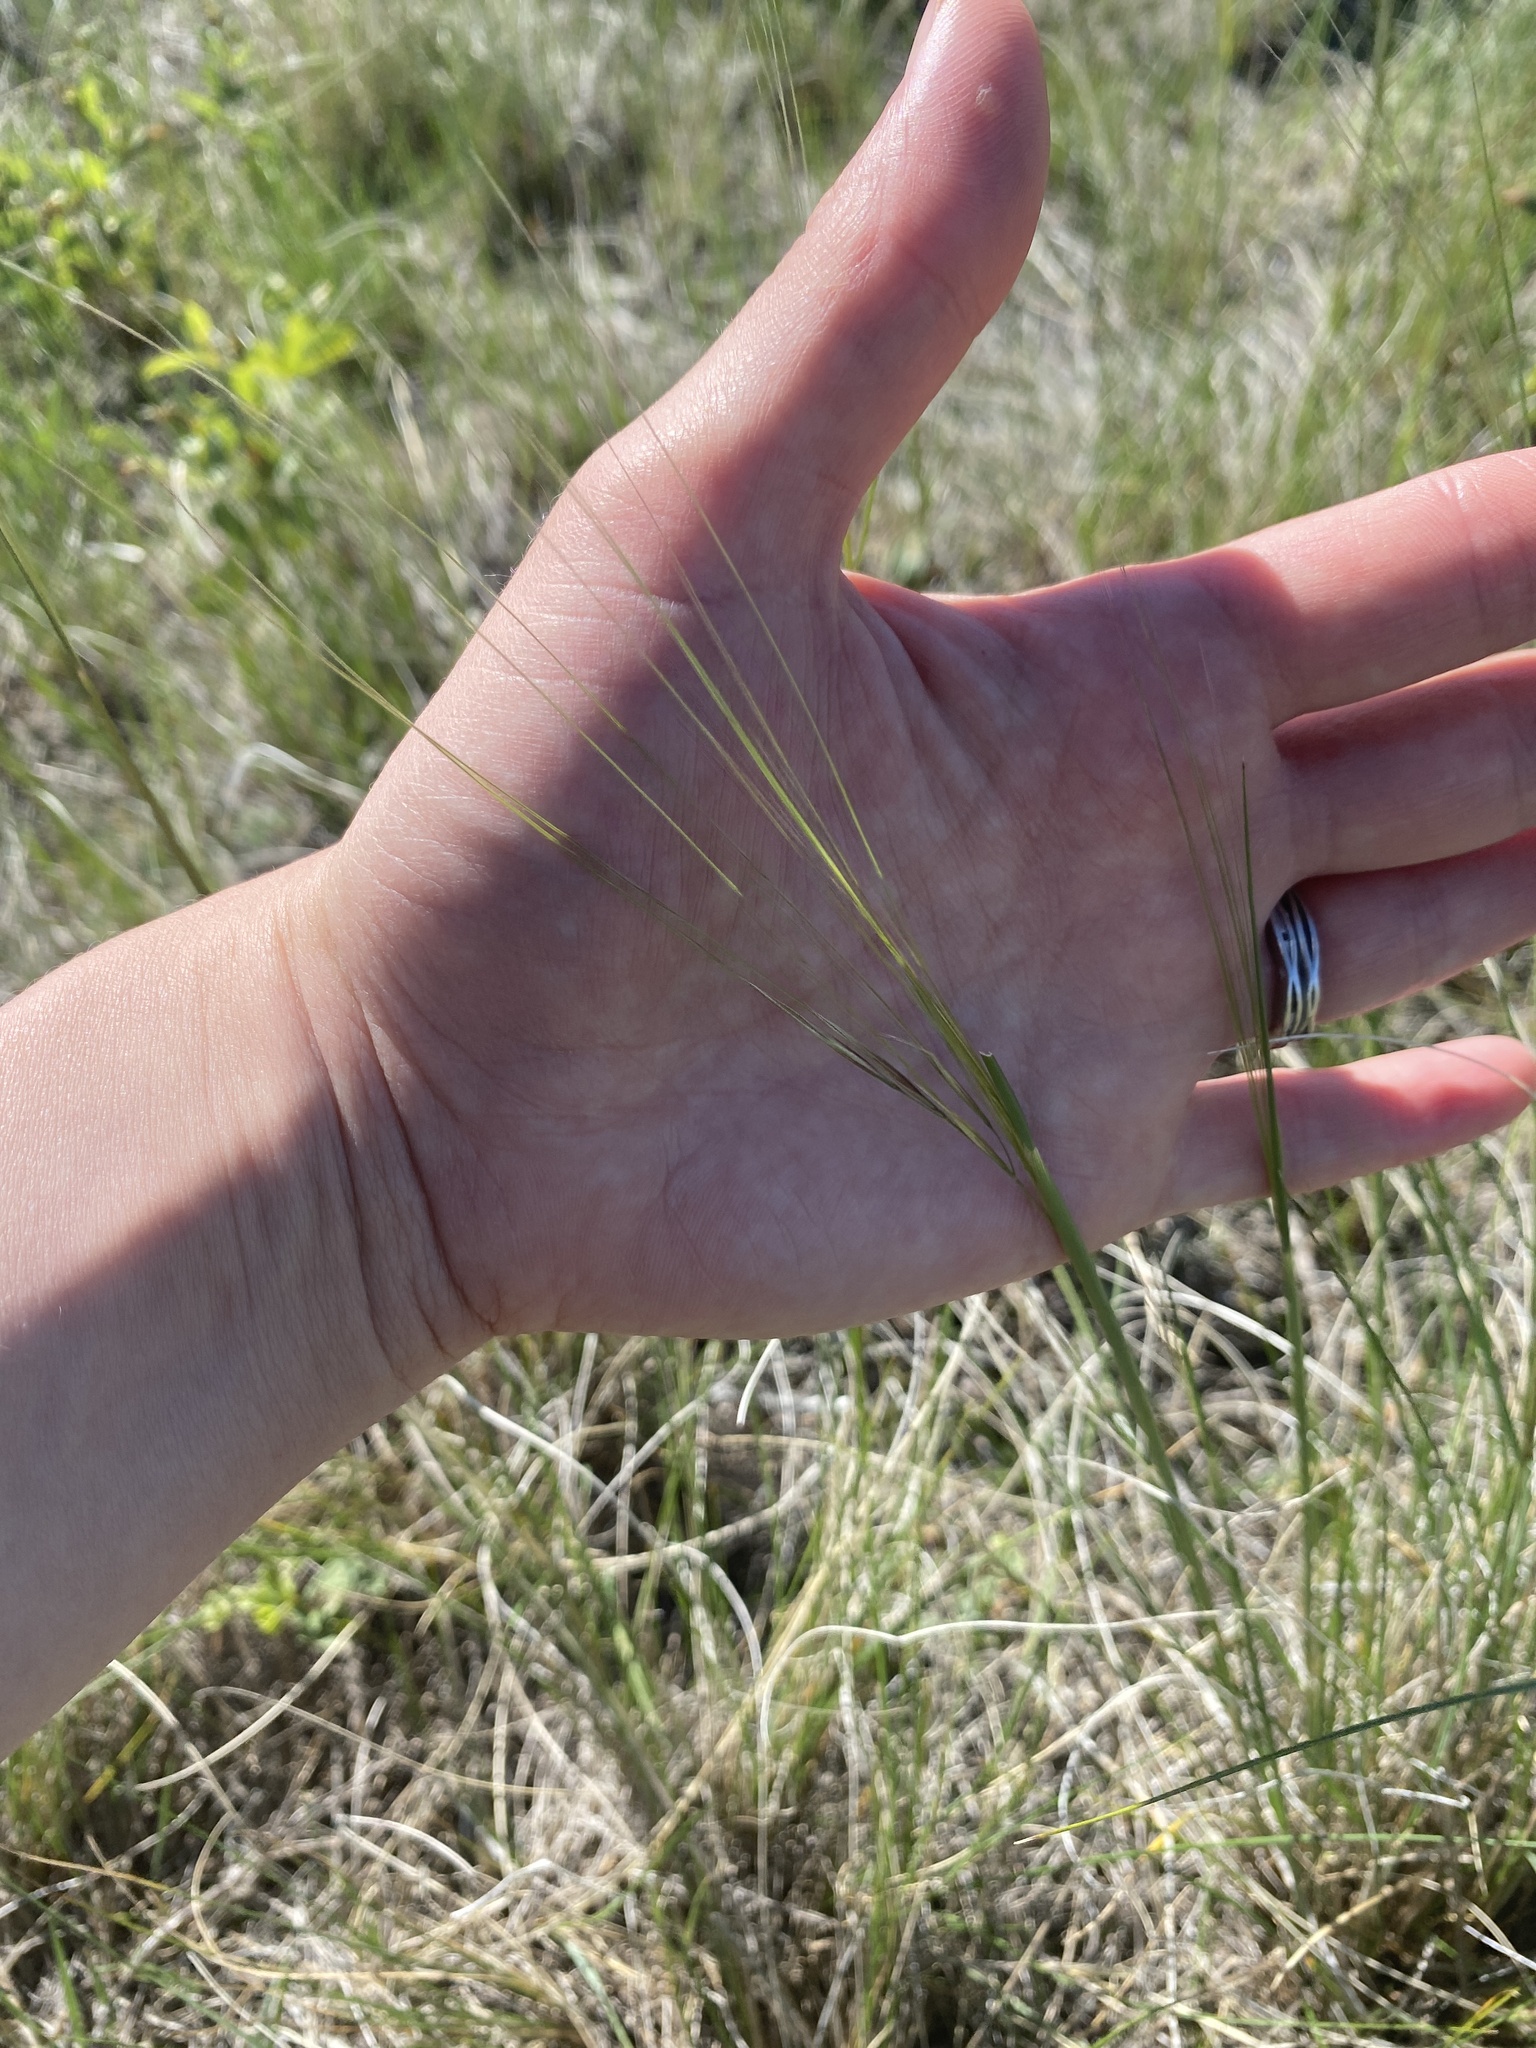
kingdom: Plantae
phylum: Tracheophyta
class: Liliopsida
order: Poales
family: Poaceae
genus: Hesperostipa
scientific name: Hesperostipa comata
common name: Needle-and-thread grass
